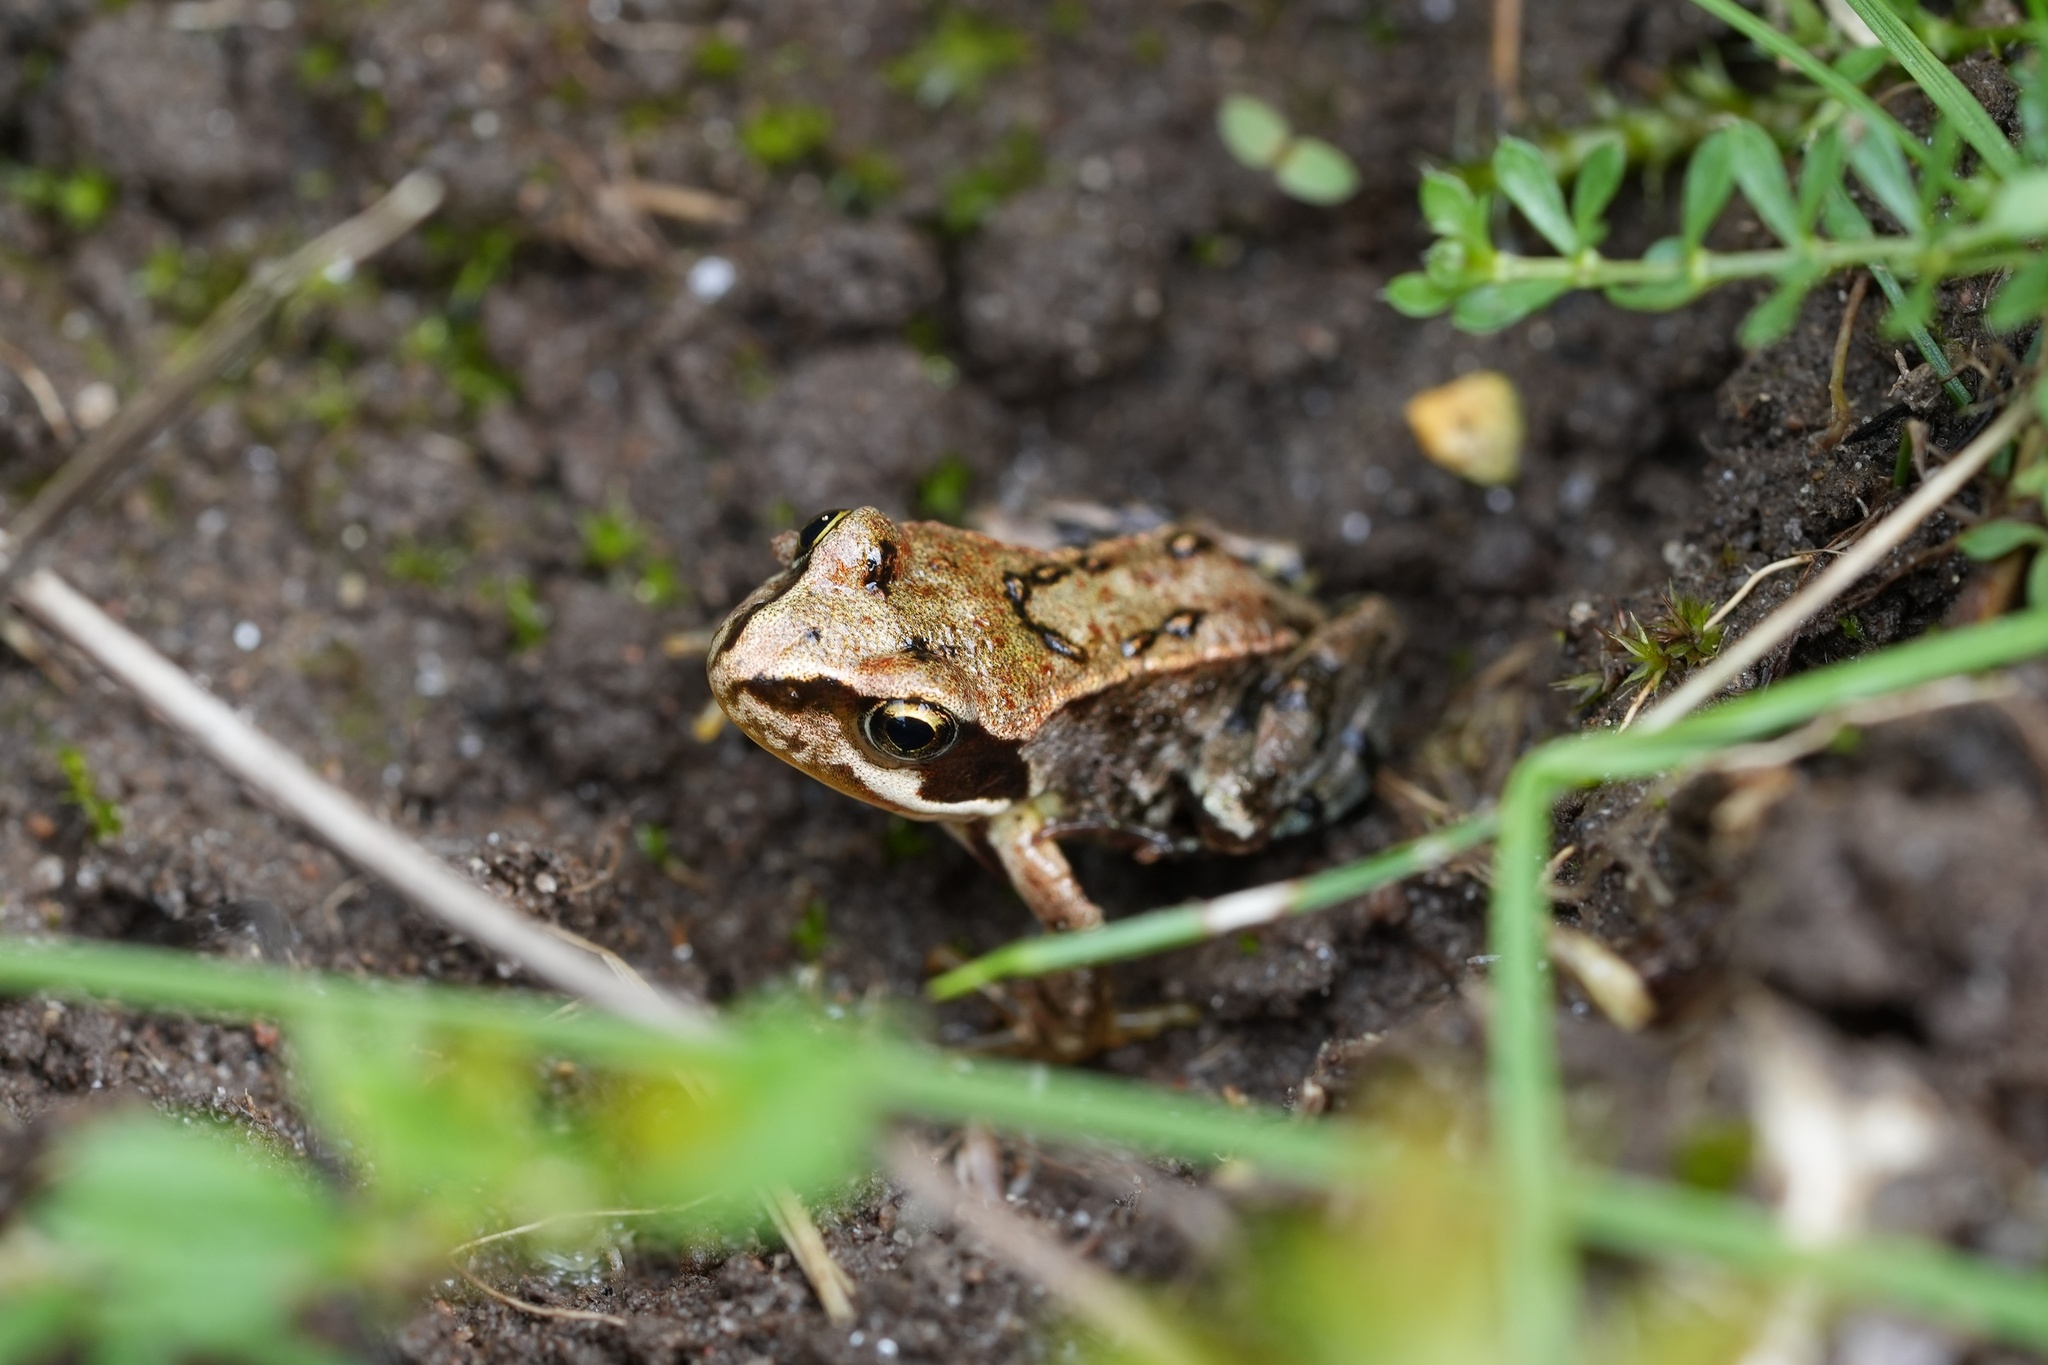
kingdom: Animalia
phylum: Chordata
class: Amphibia
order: Anura
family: Ranidae
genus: Rana
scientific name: Rana temporaria
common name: Common frog
